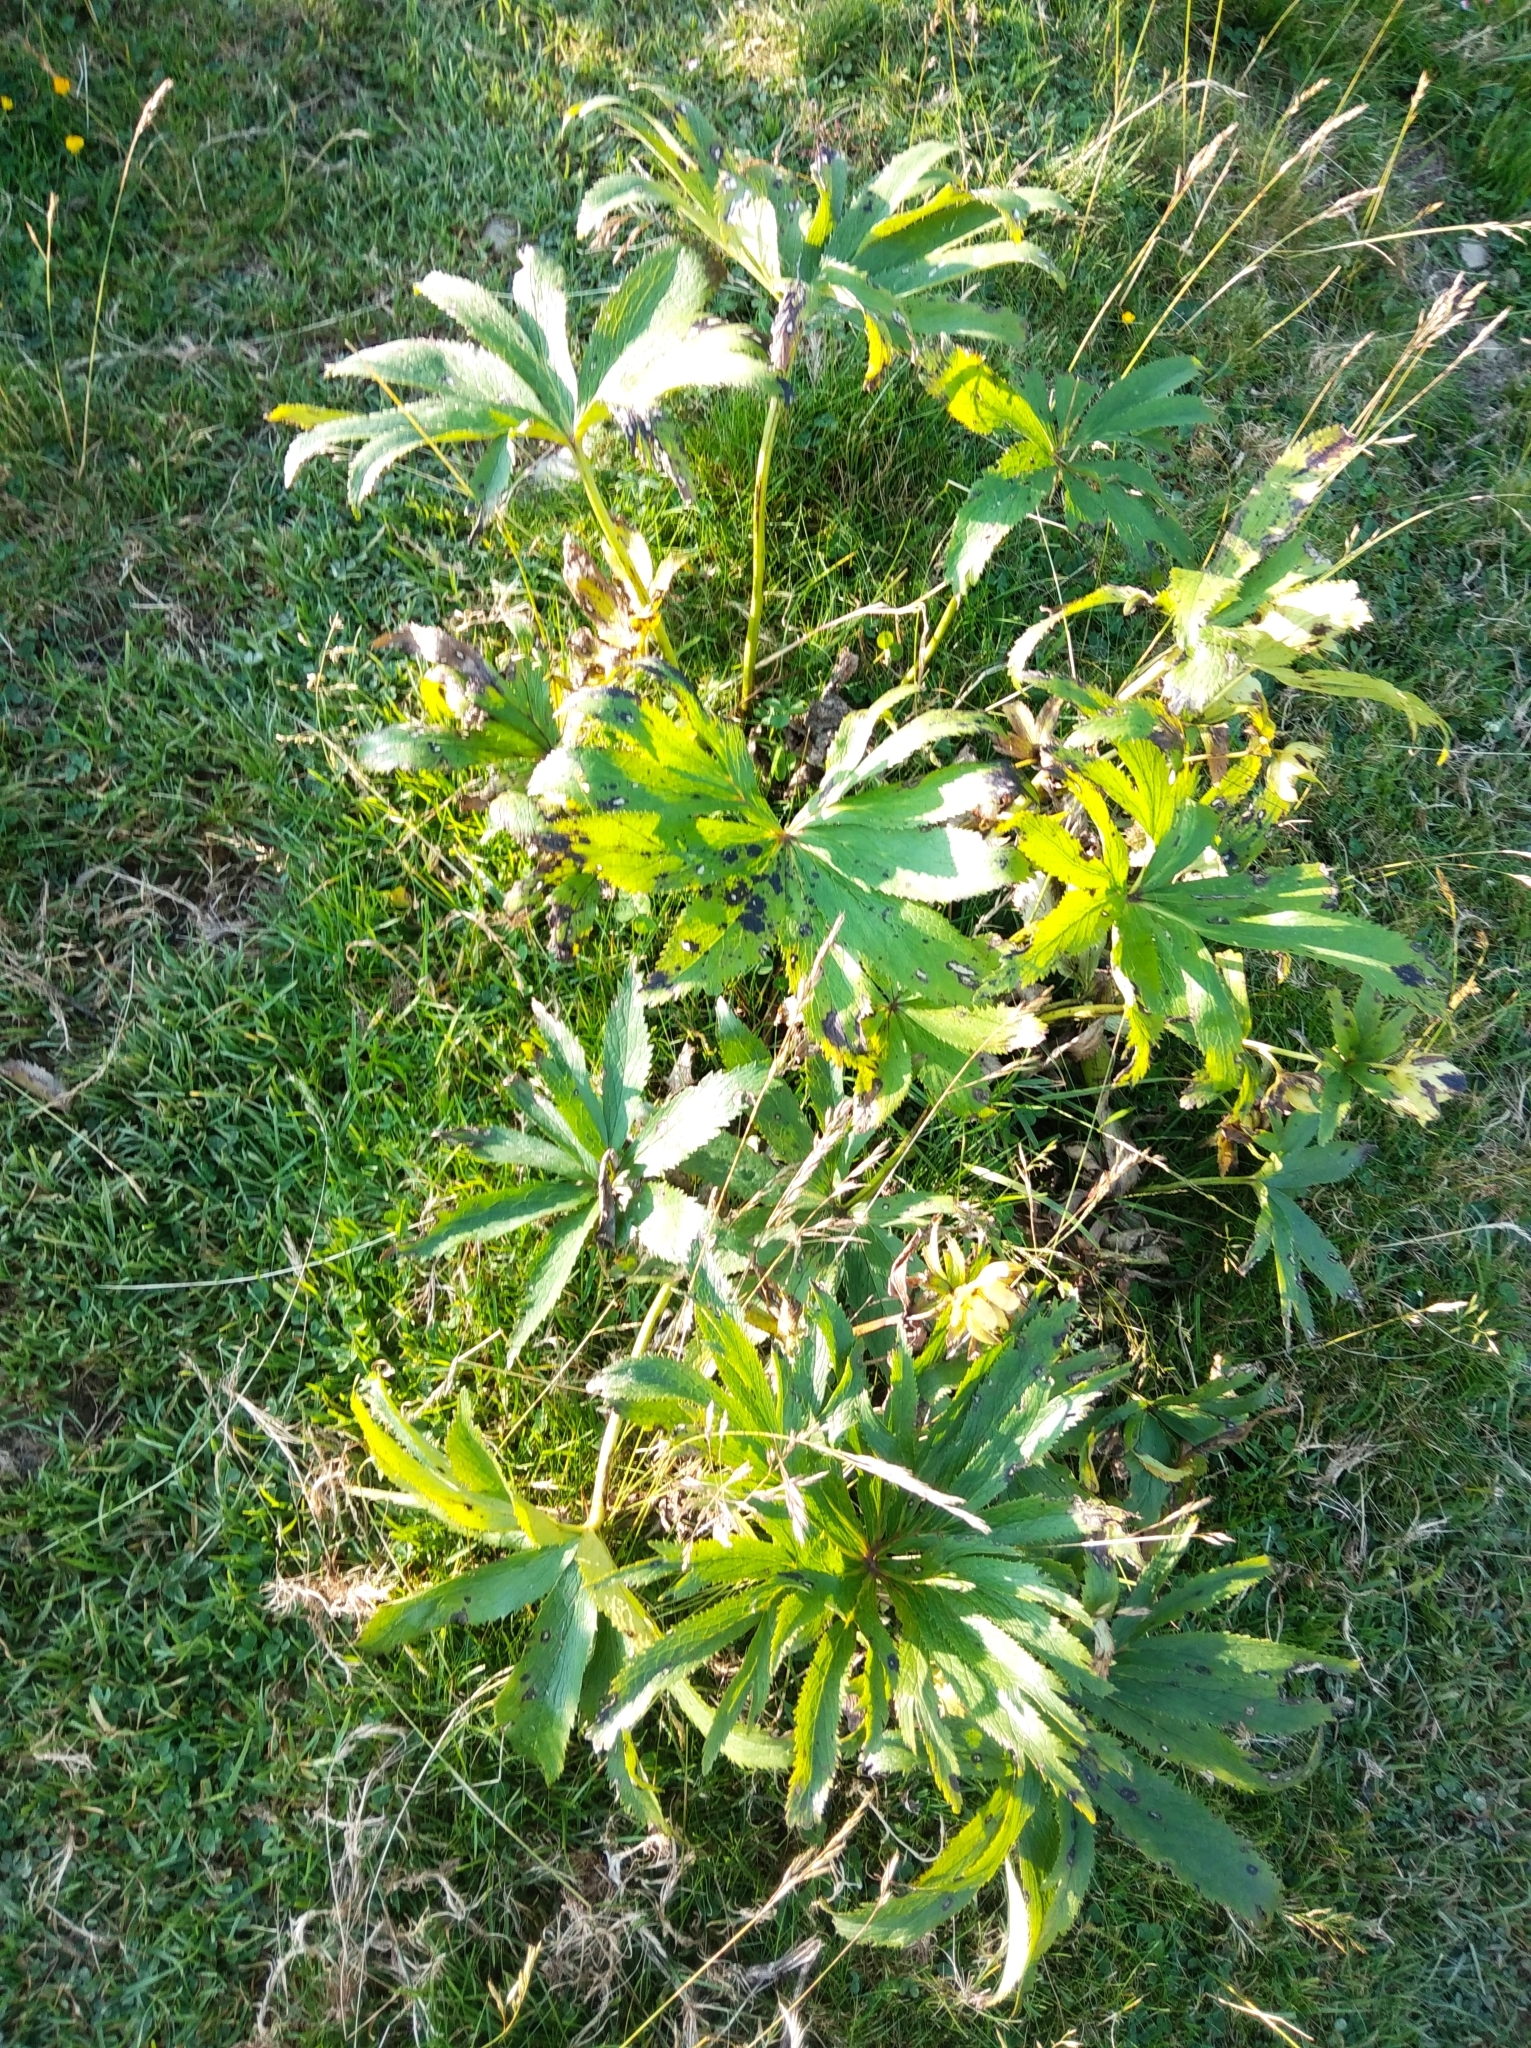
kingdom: Plantae
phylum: Tracheophyta
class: Magnoliopsida
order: Ranunculales
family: Ranunculaceae
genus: Helleborus
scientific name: Helleborus viridis
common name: Green hellebore
